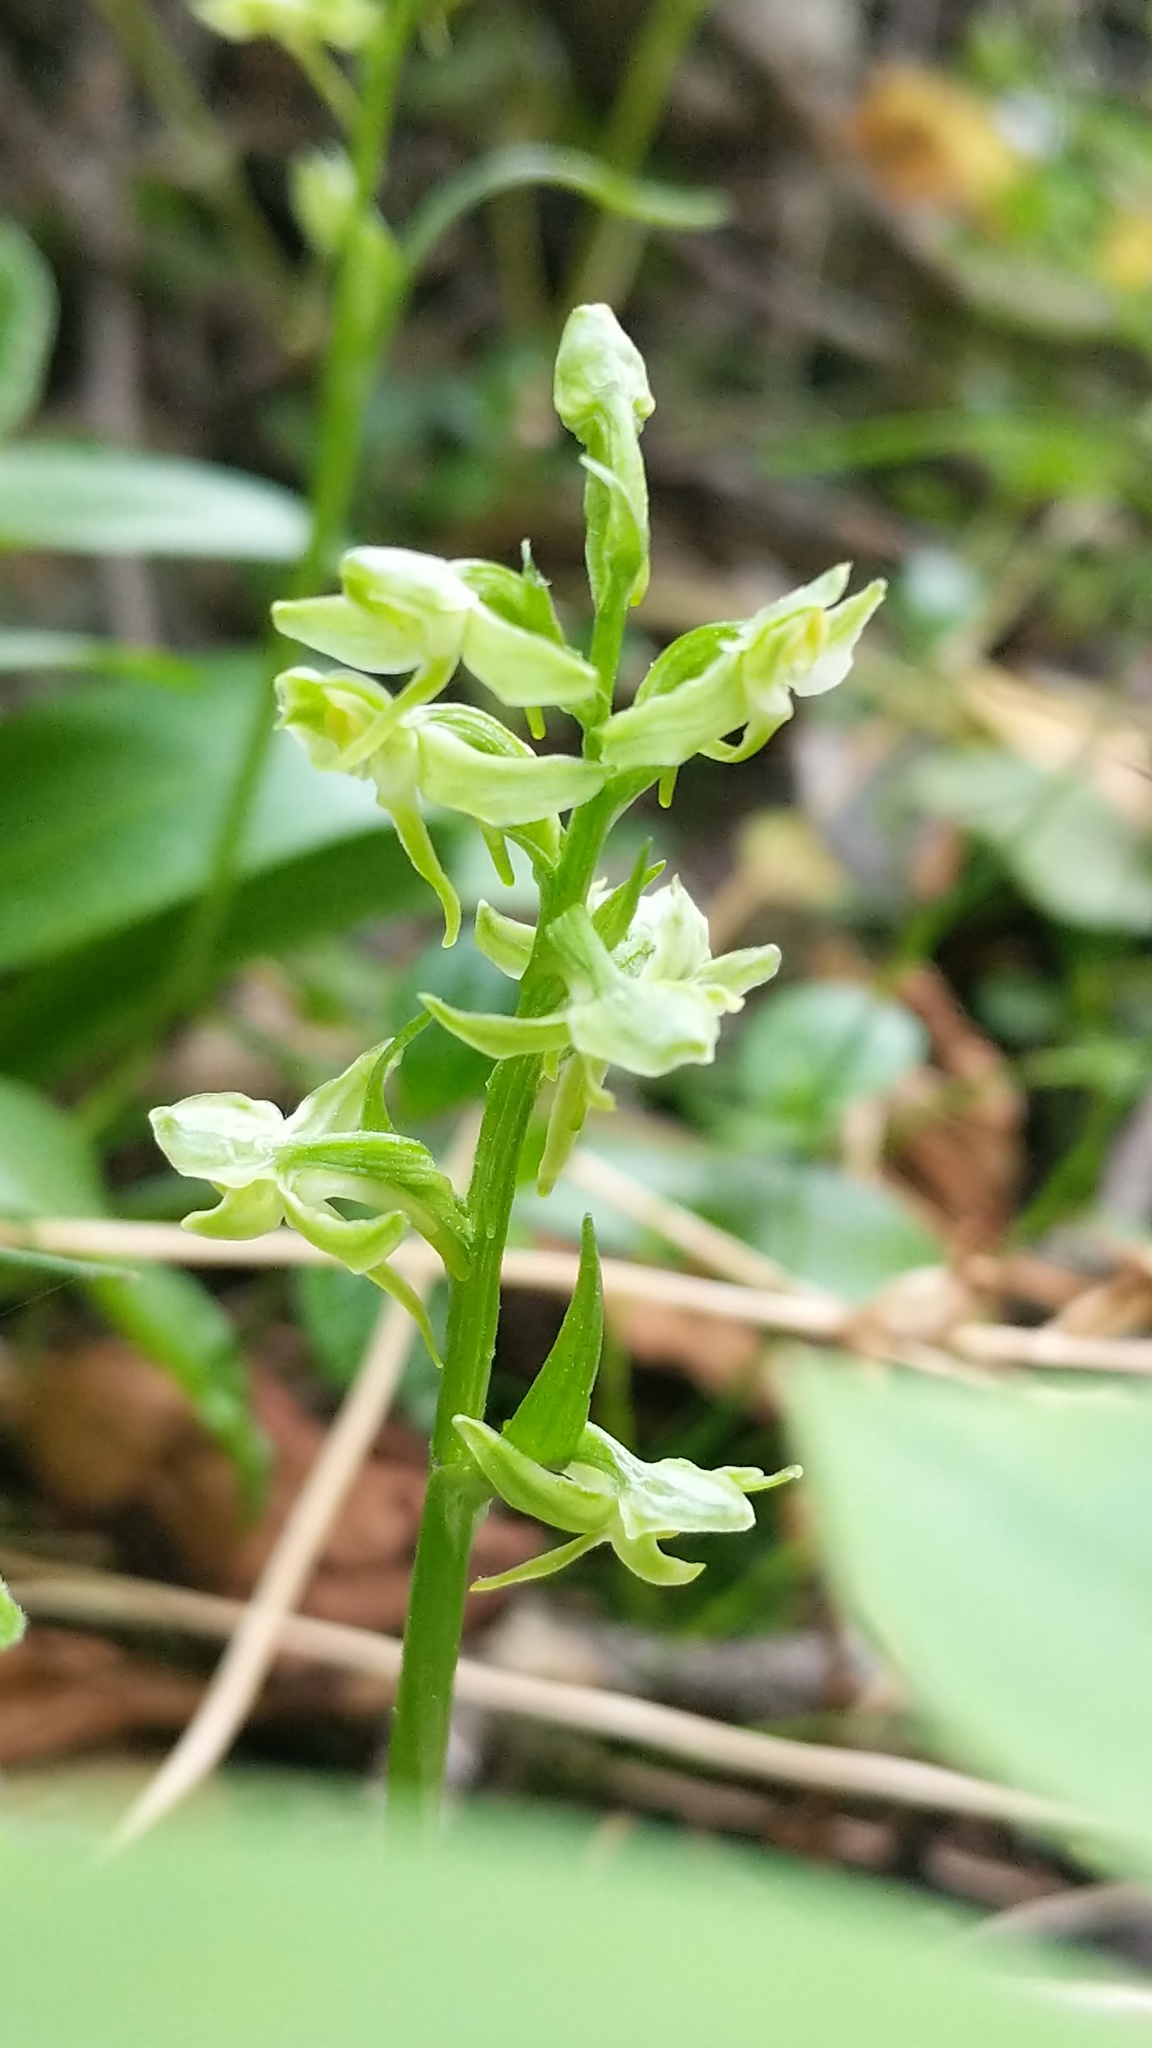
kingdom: Plantae
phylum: Tracheophyta
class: Liliopsida
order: Asparagales
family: Orchidaceae
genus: Platanthera
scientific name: Platanthera obtusata
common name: Blunt bog orchid
